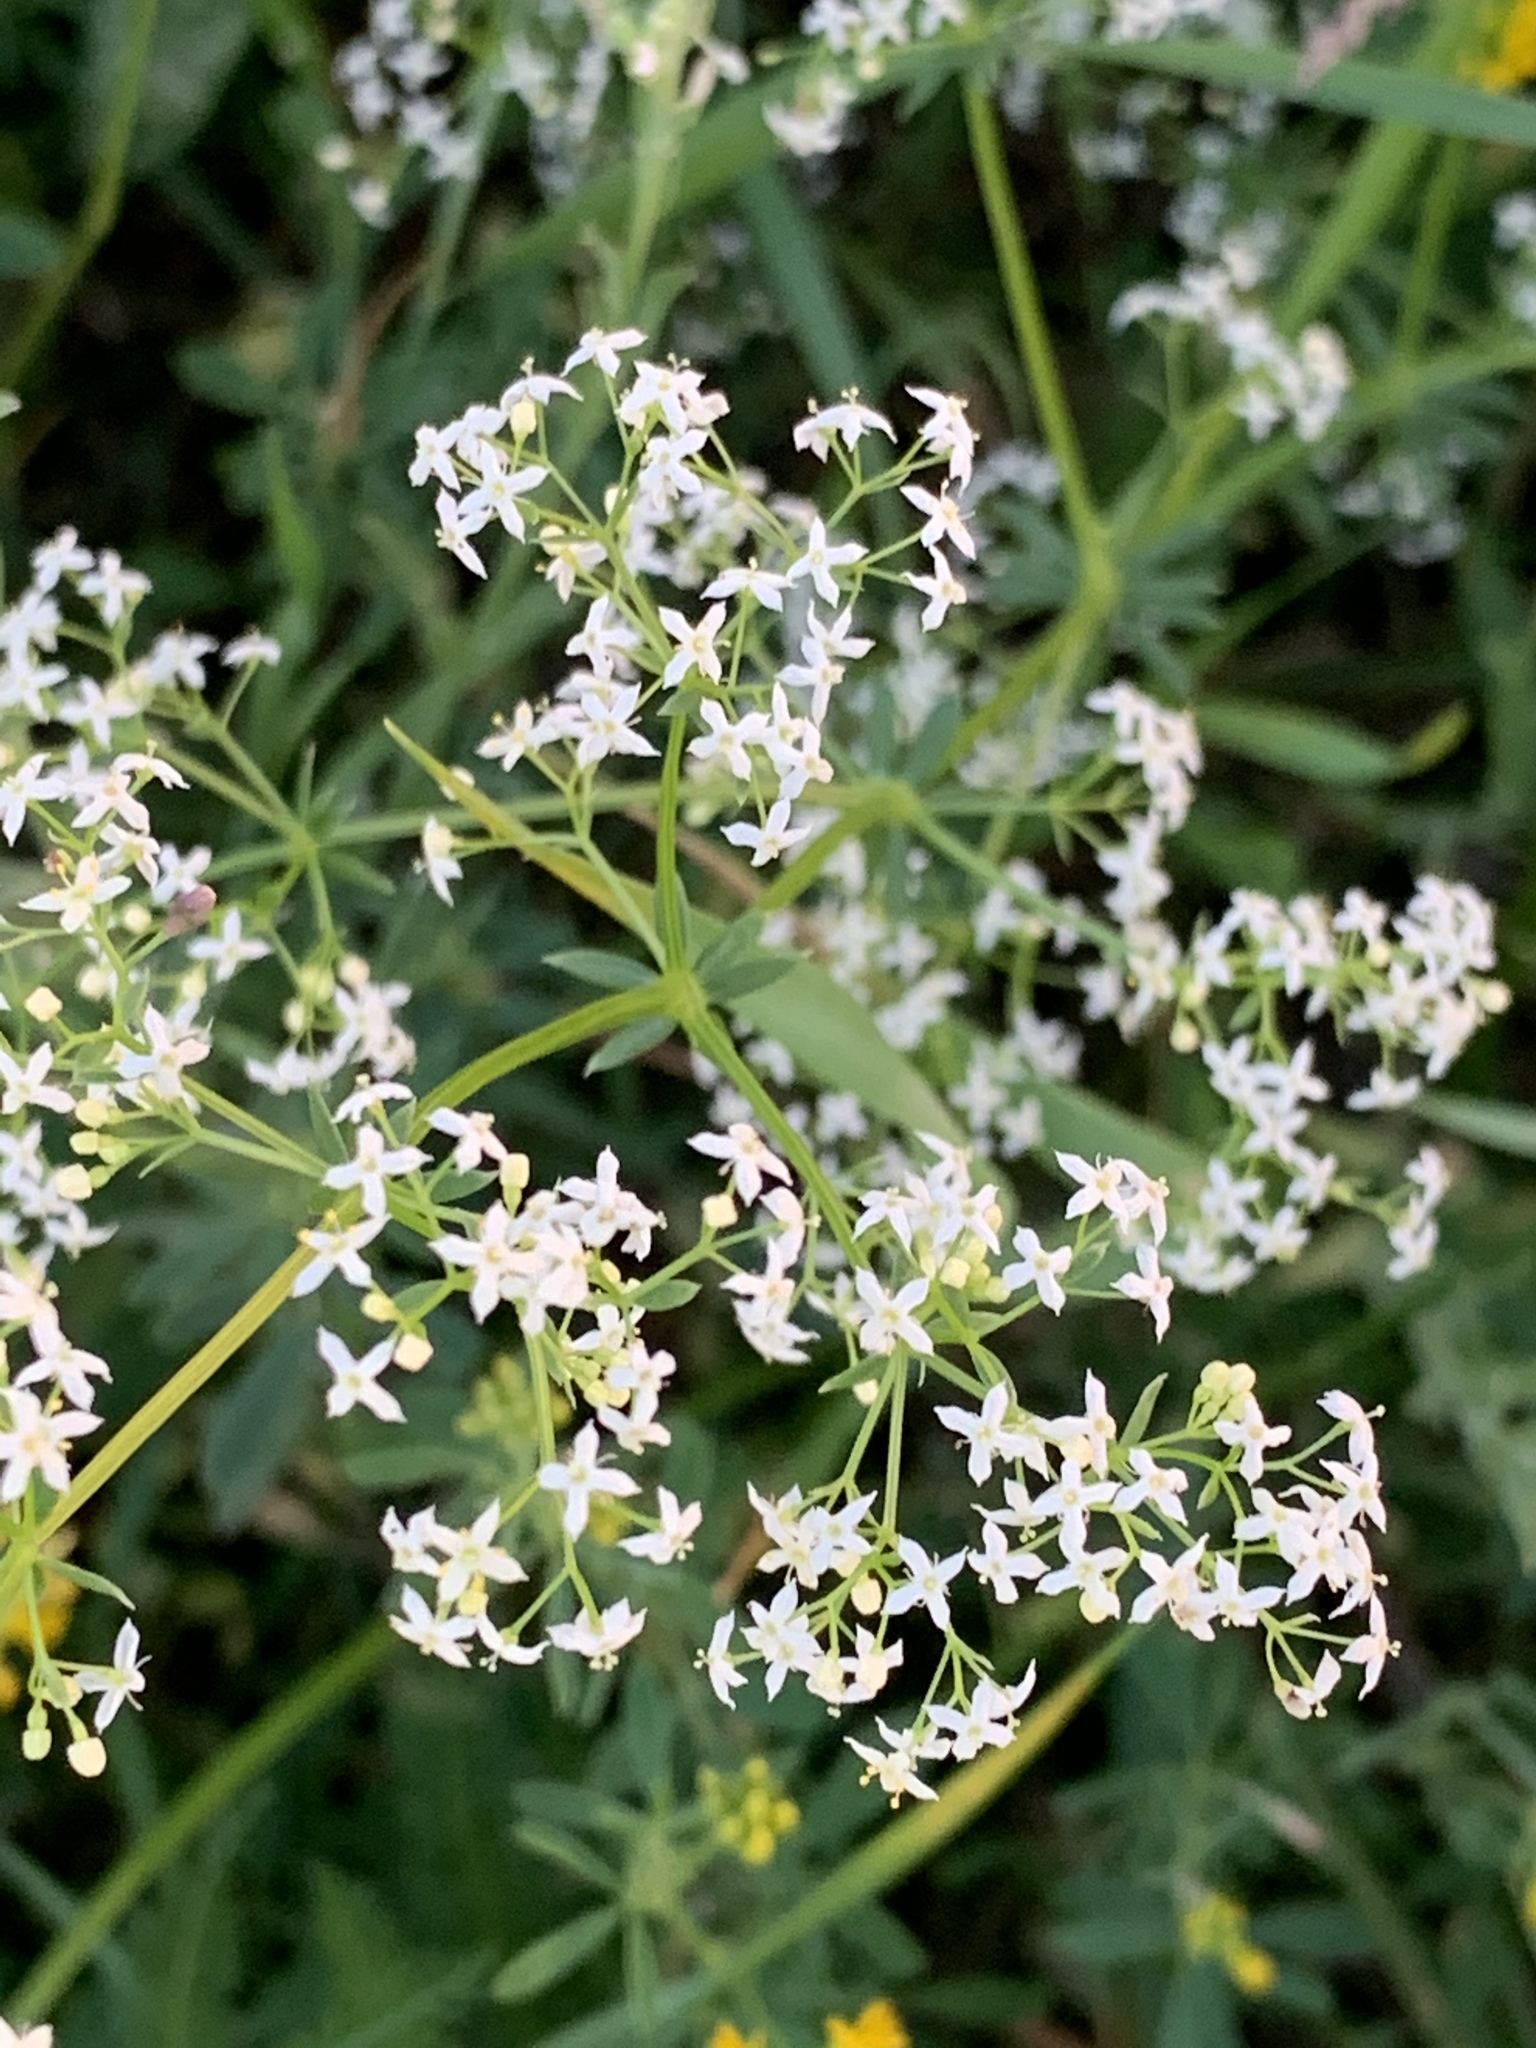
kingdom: Plantae
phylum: Tracheophyta
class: Magnoliopsida
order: Gentianales
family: Rubiaceae
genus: Galium
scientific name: Galium mollugo
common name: Hedge bedstraw
